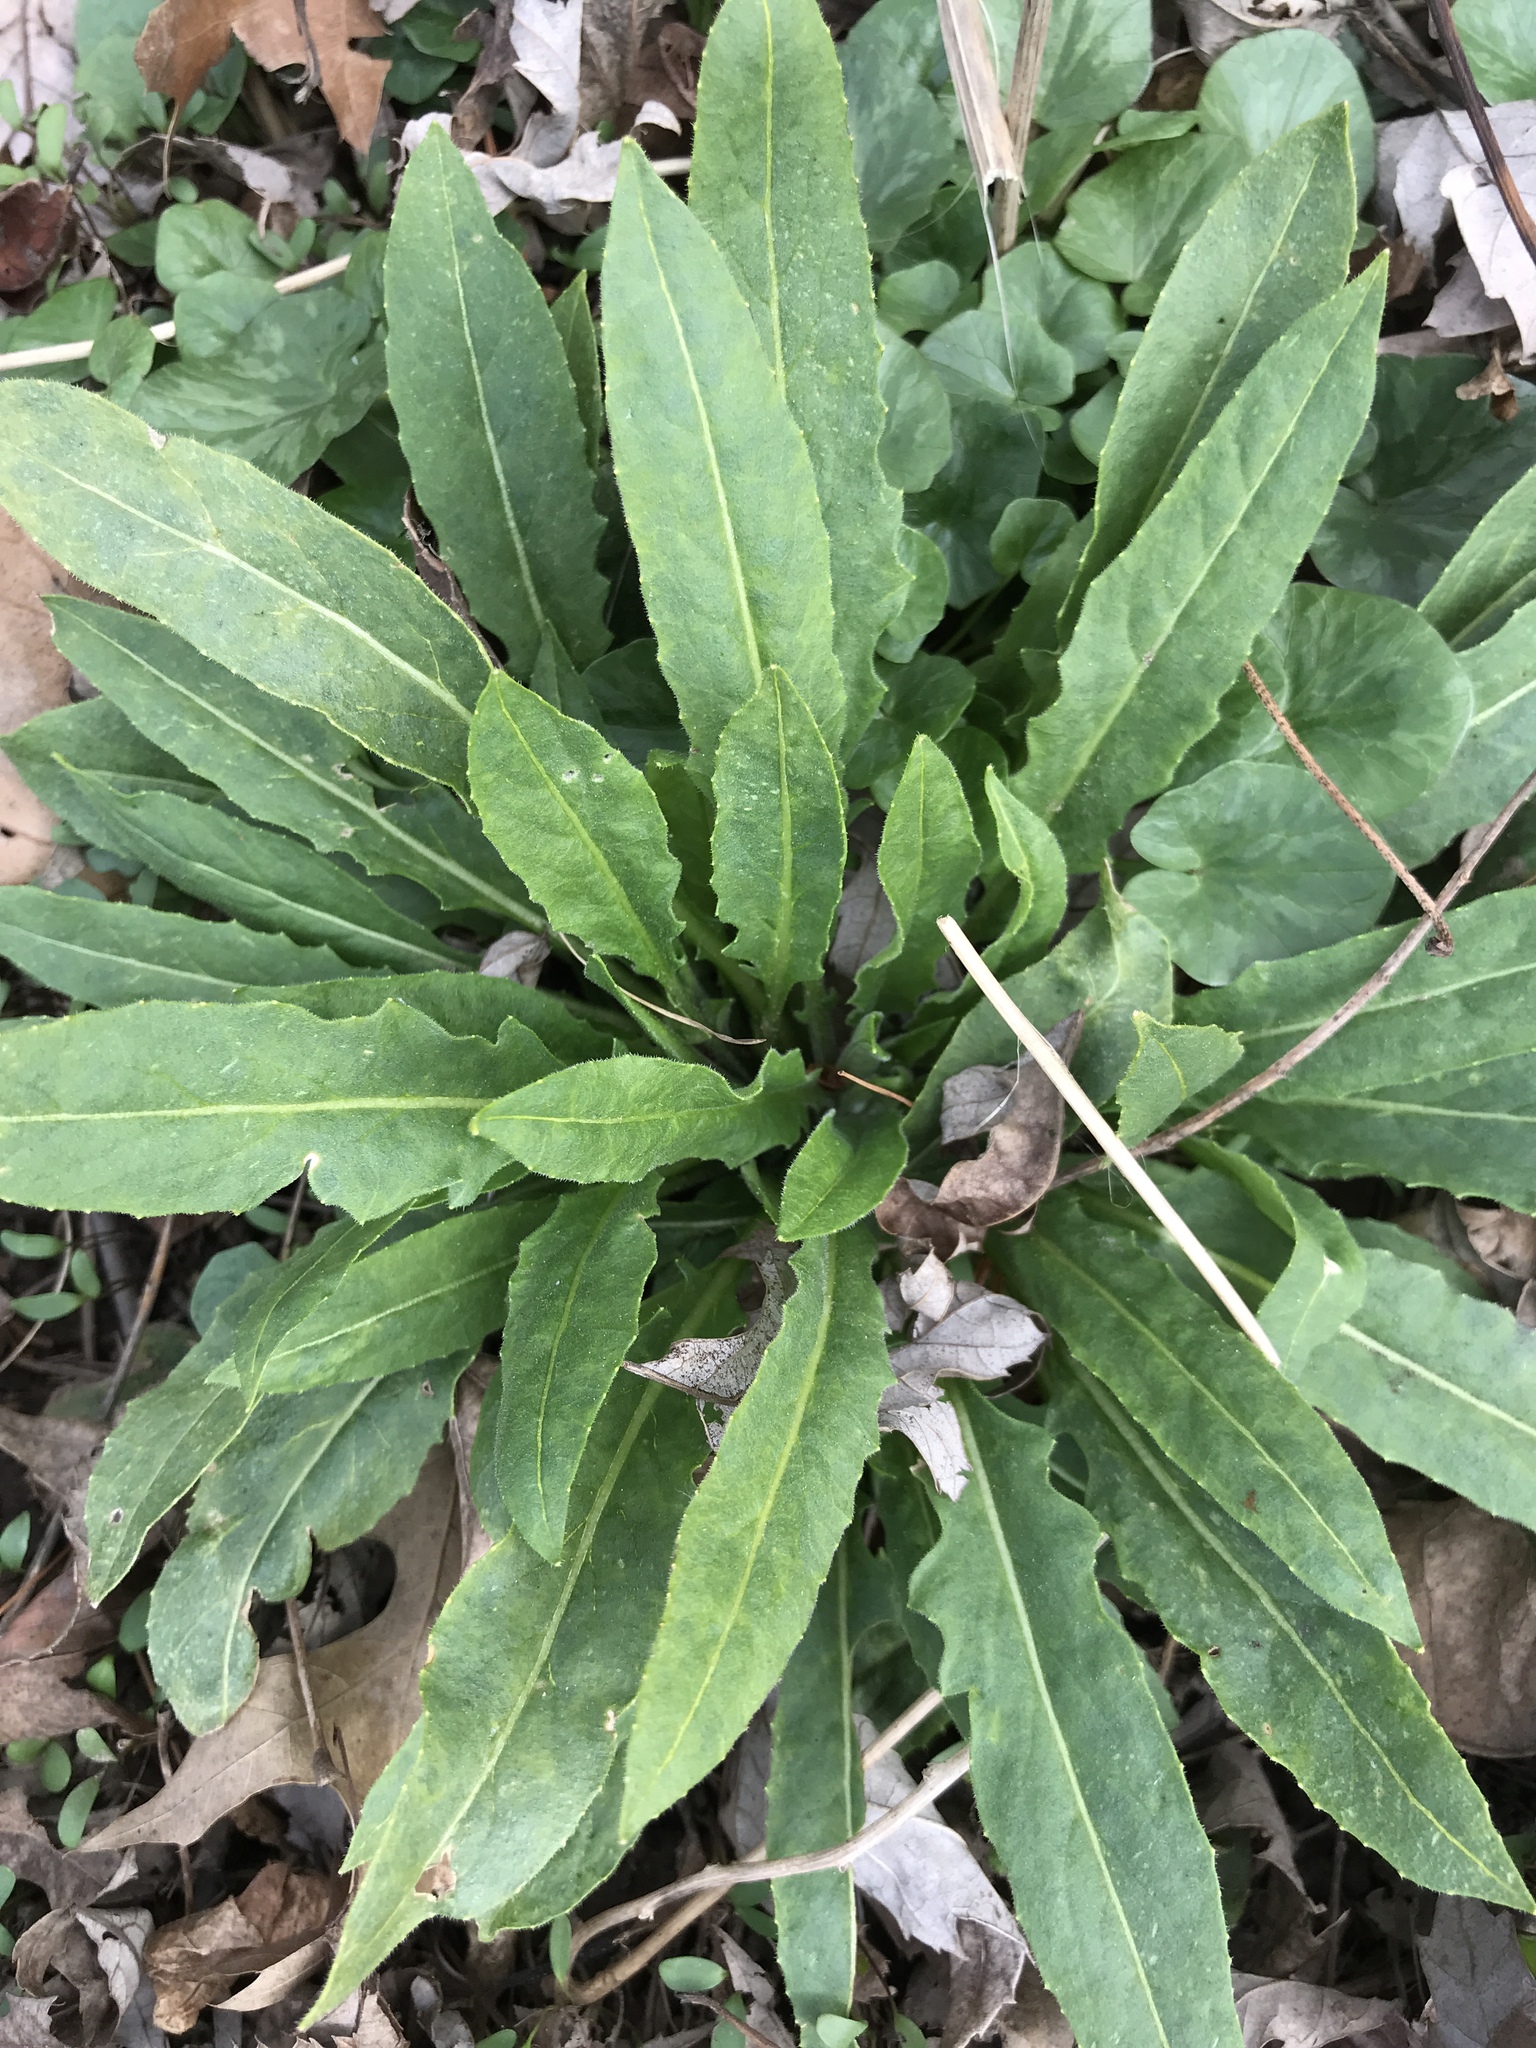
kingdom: Plantae
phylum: Tracheophyta
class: Magnoliopsida
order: Brassicales
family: Brassicaceae
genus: Hesperis
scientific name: Hesperis matronalis
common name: Dame's-violet
